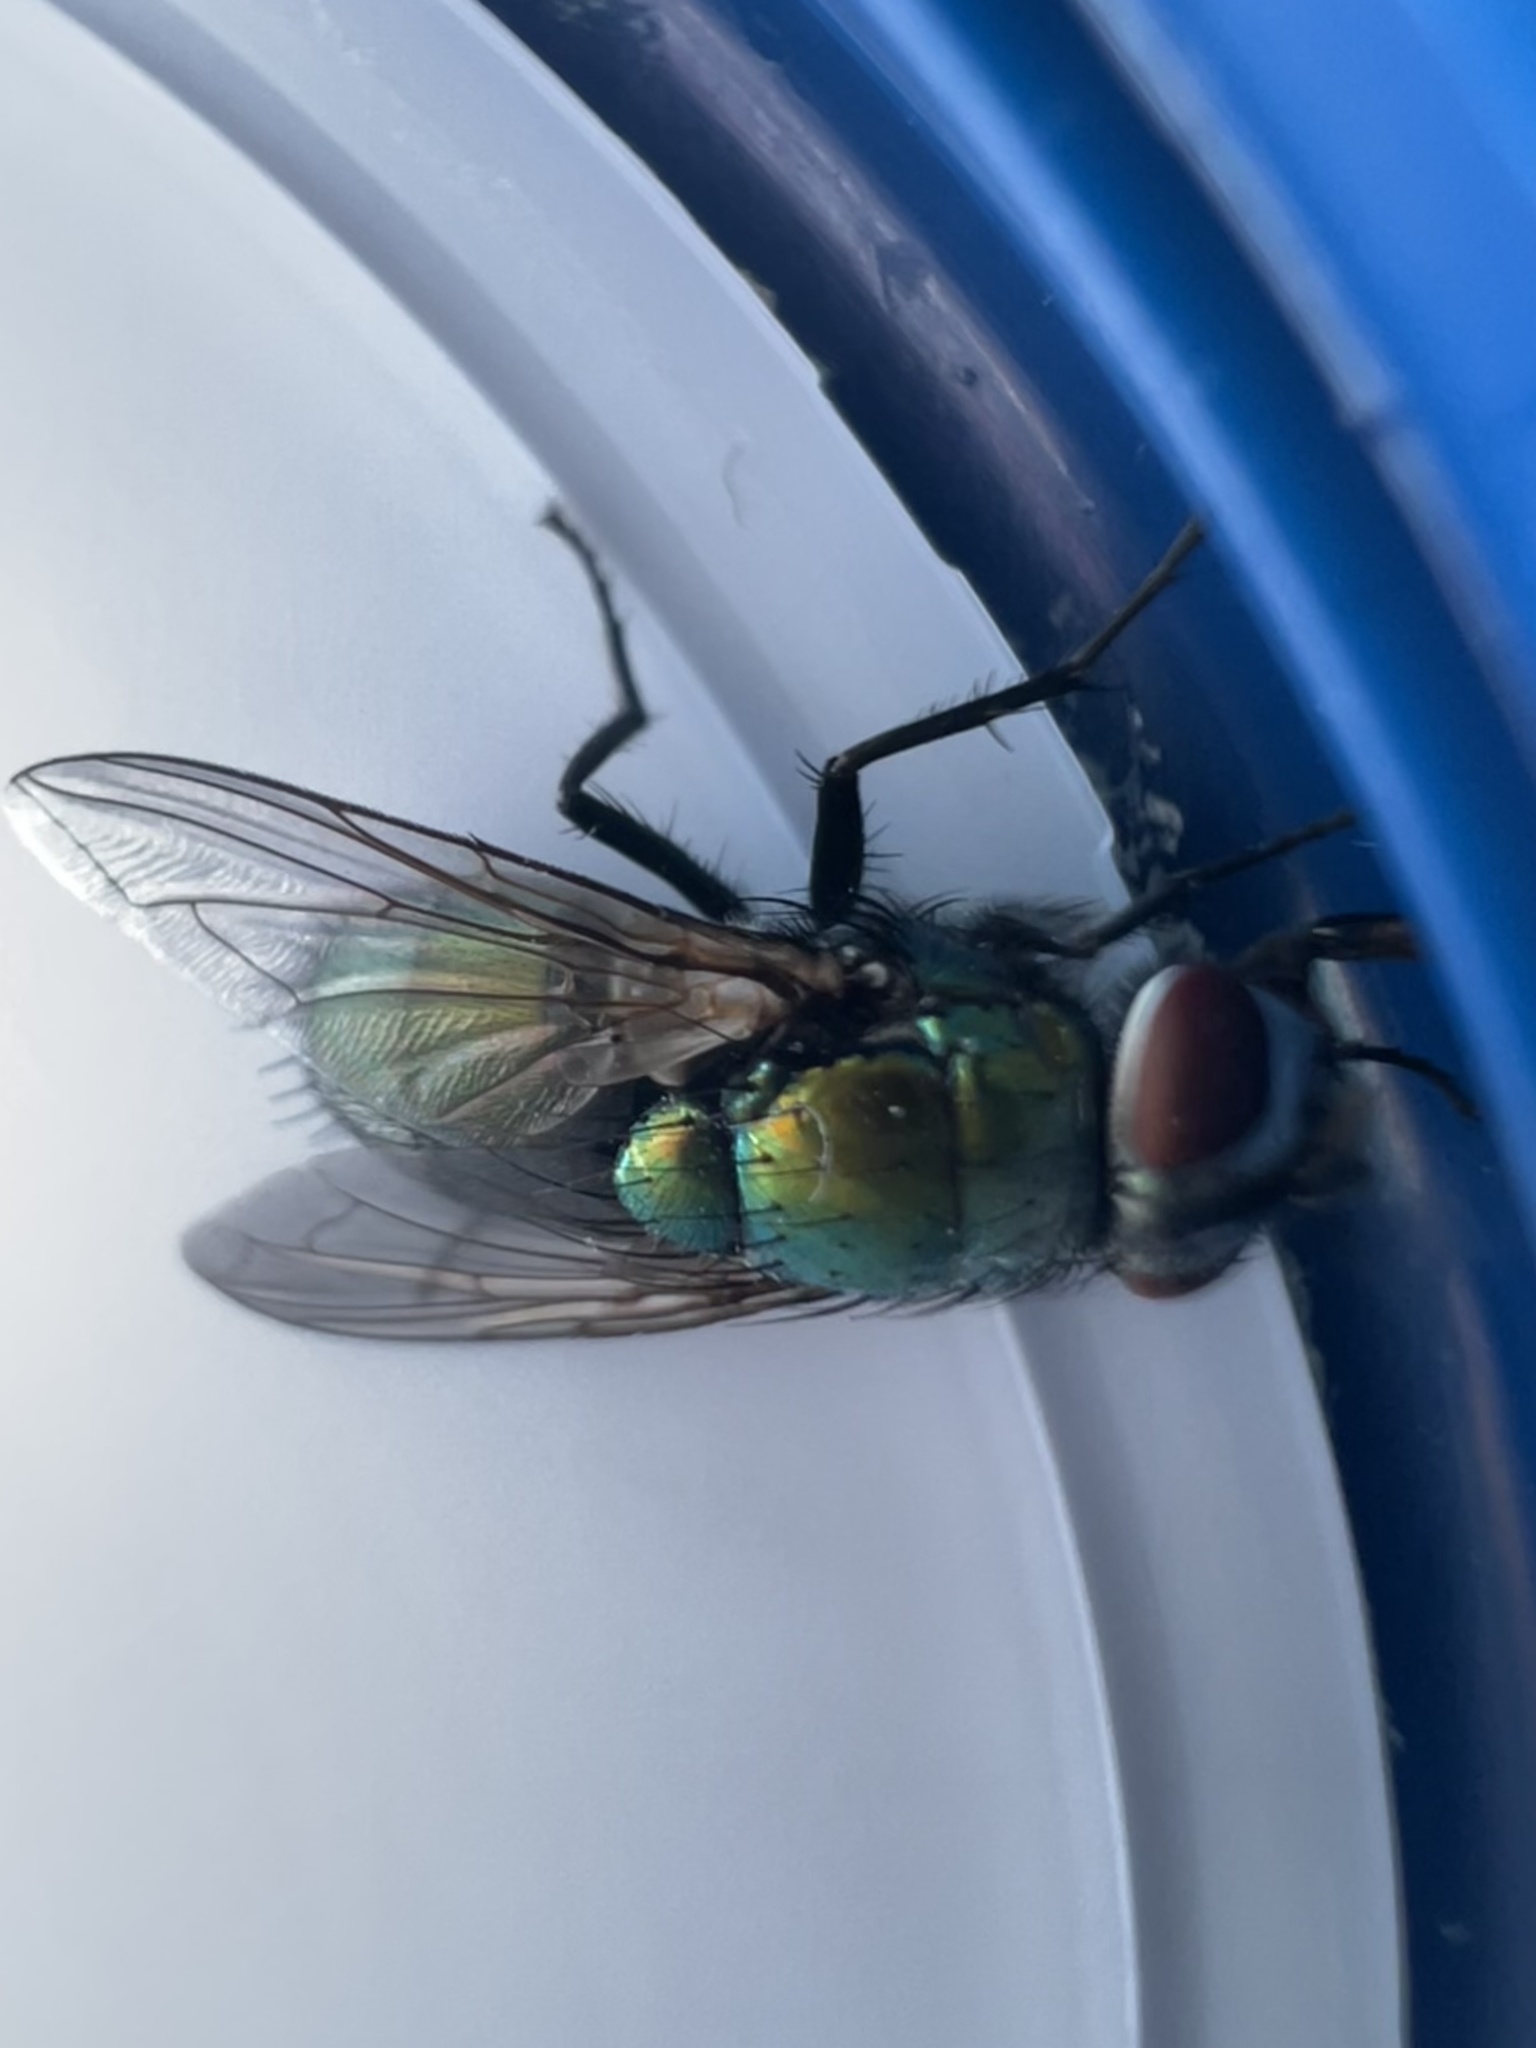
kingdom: Animalia
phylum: Arthropoda
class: Insecta
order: Diptera
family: Calliphoridae
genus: Lucilia
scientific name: Lucilia sericata
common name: Blow fly
